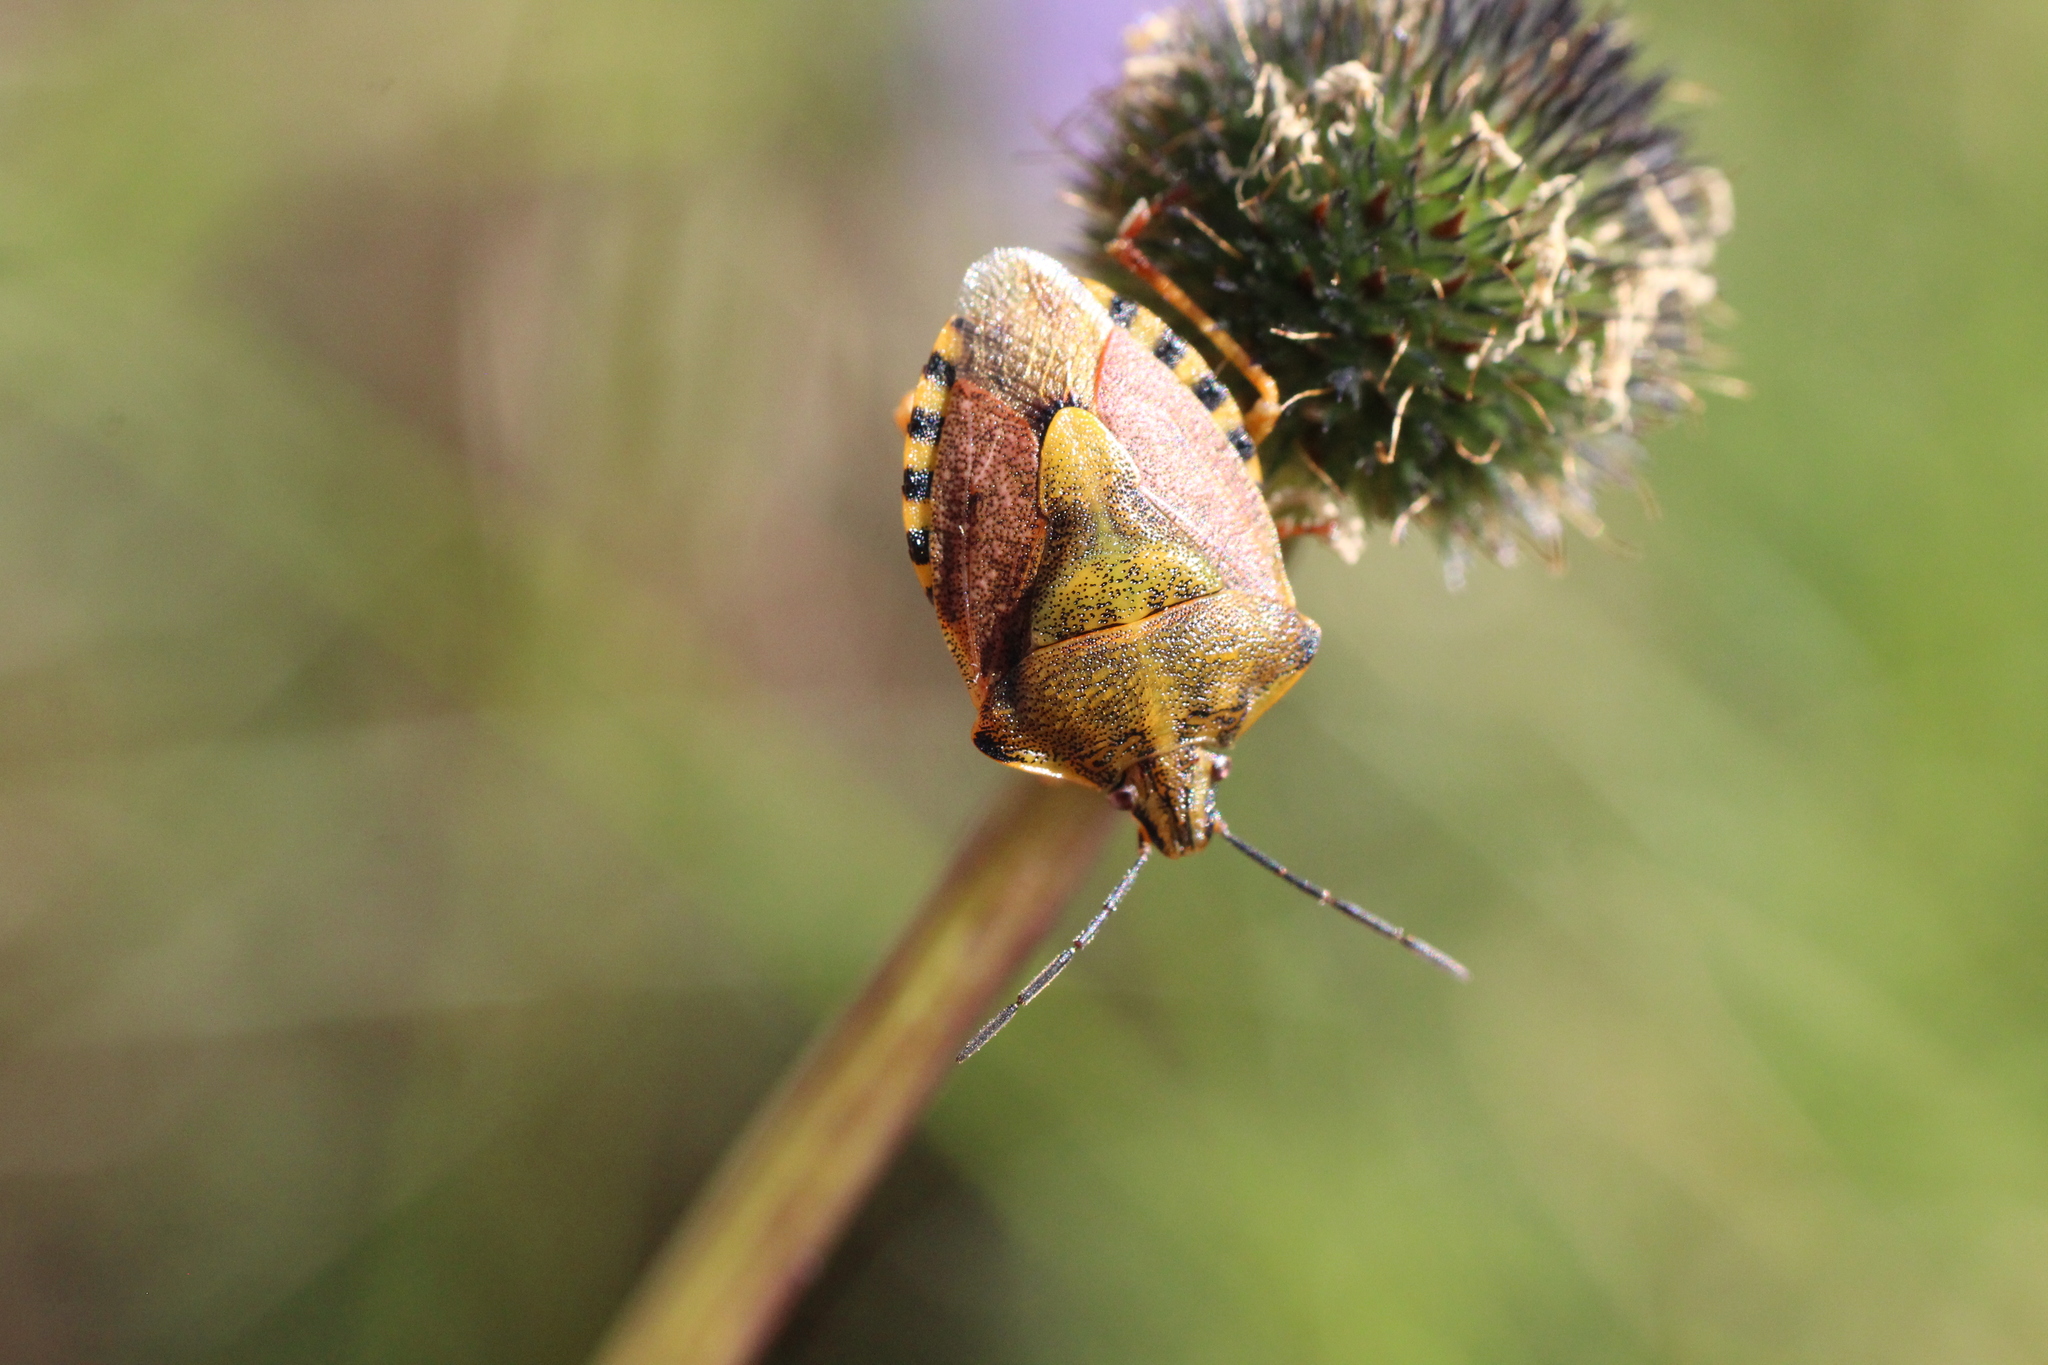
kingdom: Animalia
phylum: Arthropoda
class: Insecta
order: Hemiptera
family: Pentatomidae
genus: Carpocoris
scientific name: Carpocoris purpureipennis
